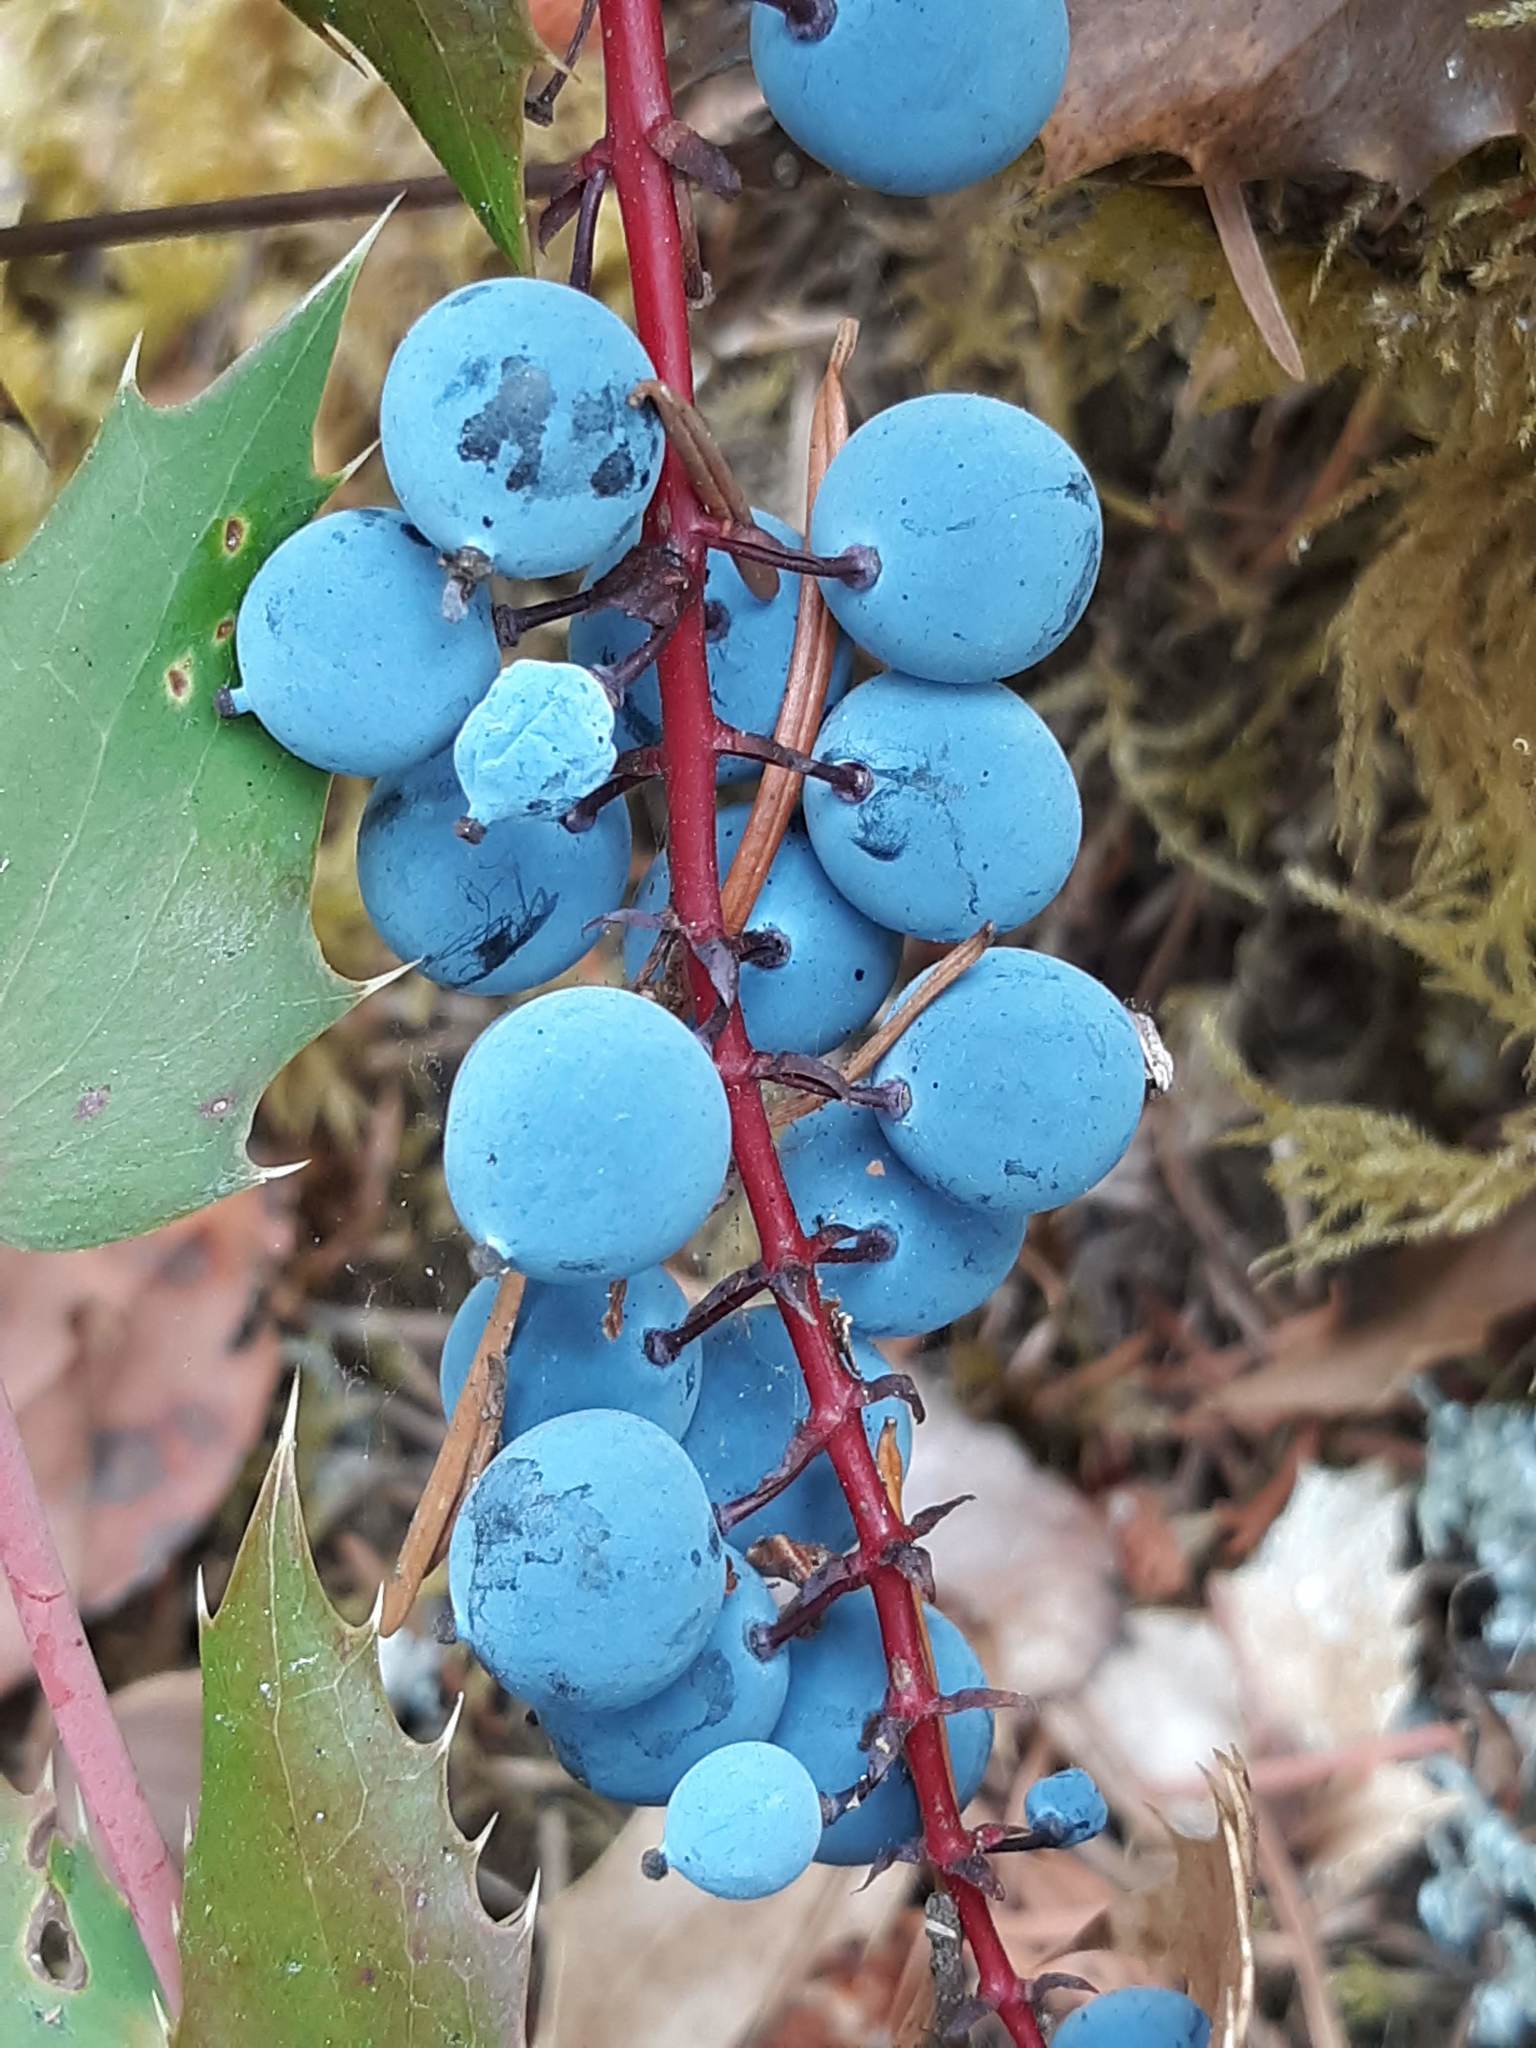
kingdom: Plantae
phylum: Tracheophyta
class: Magnoliopsida
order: Ranunculales
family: Berberidaceae
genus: Mahonia
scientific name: Mahonia nervosa
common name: Cascade oregon-grape
